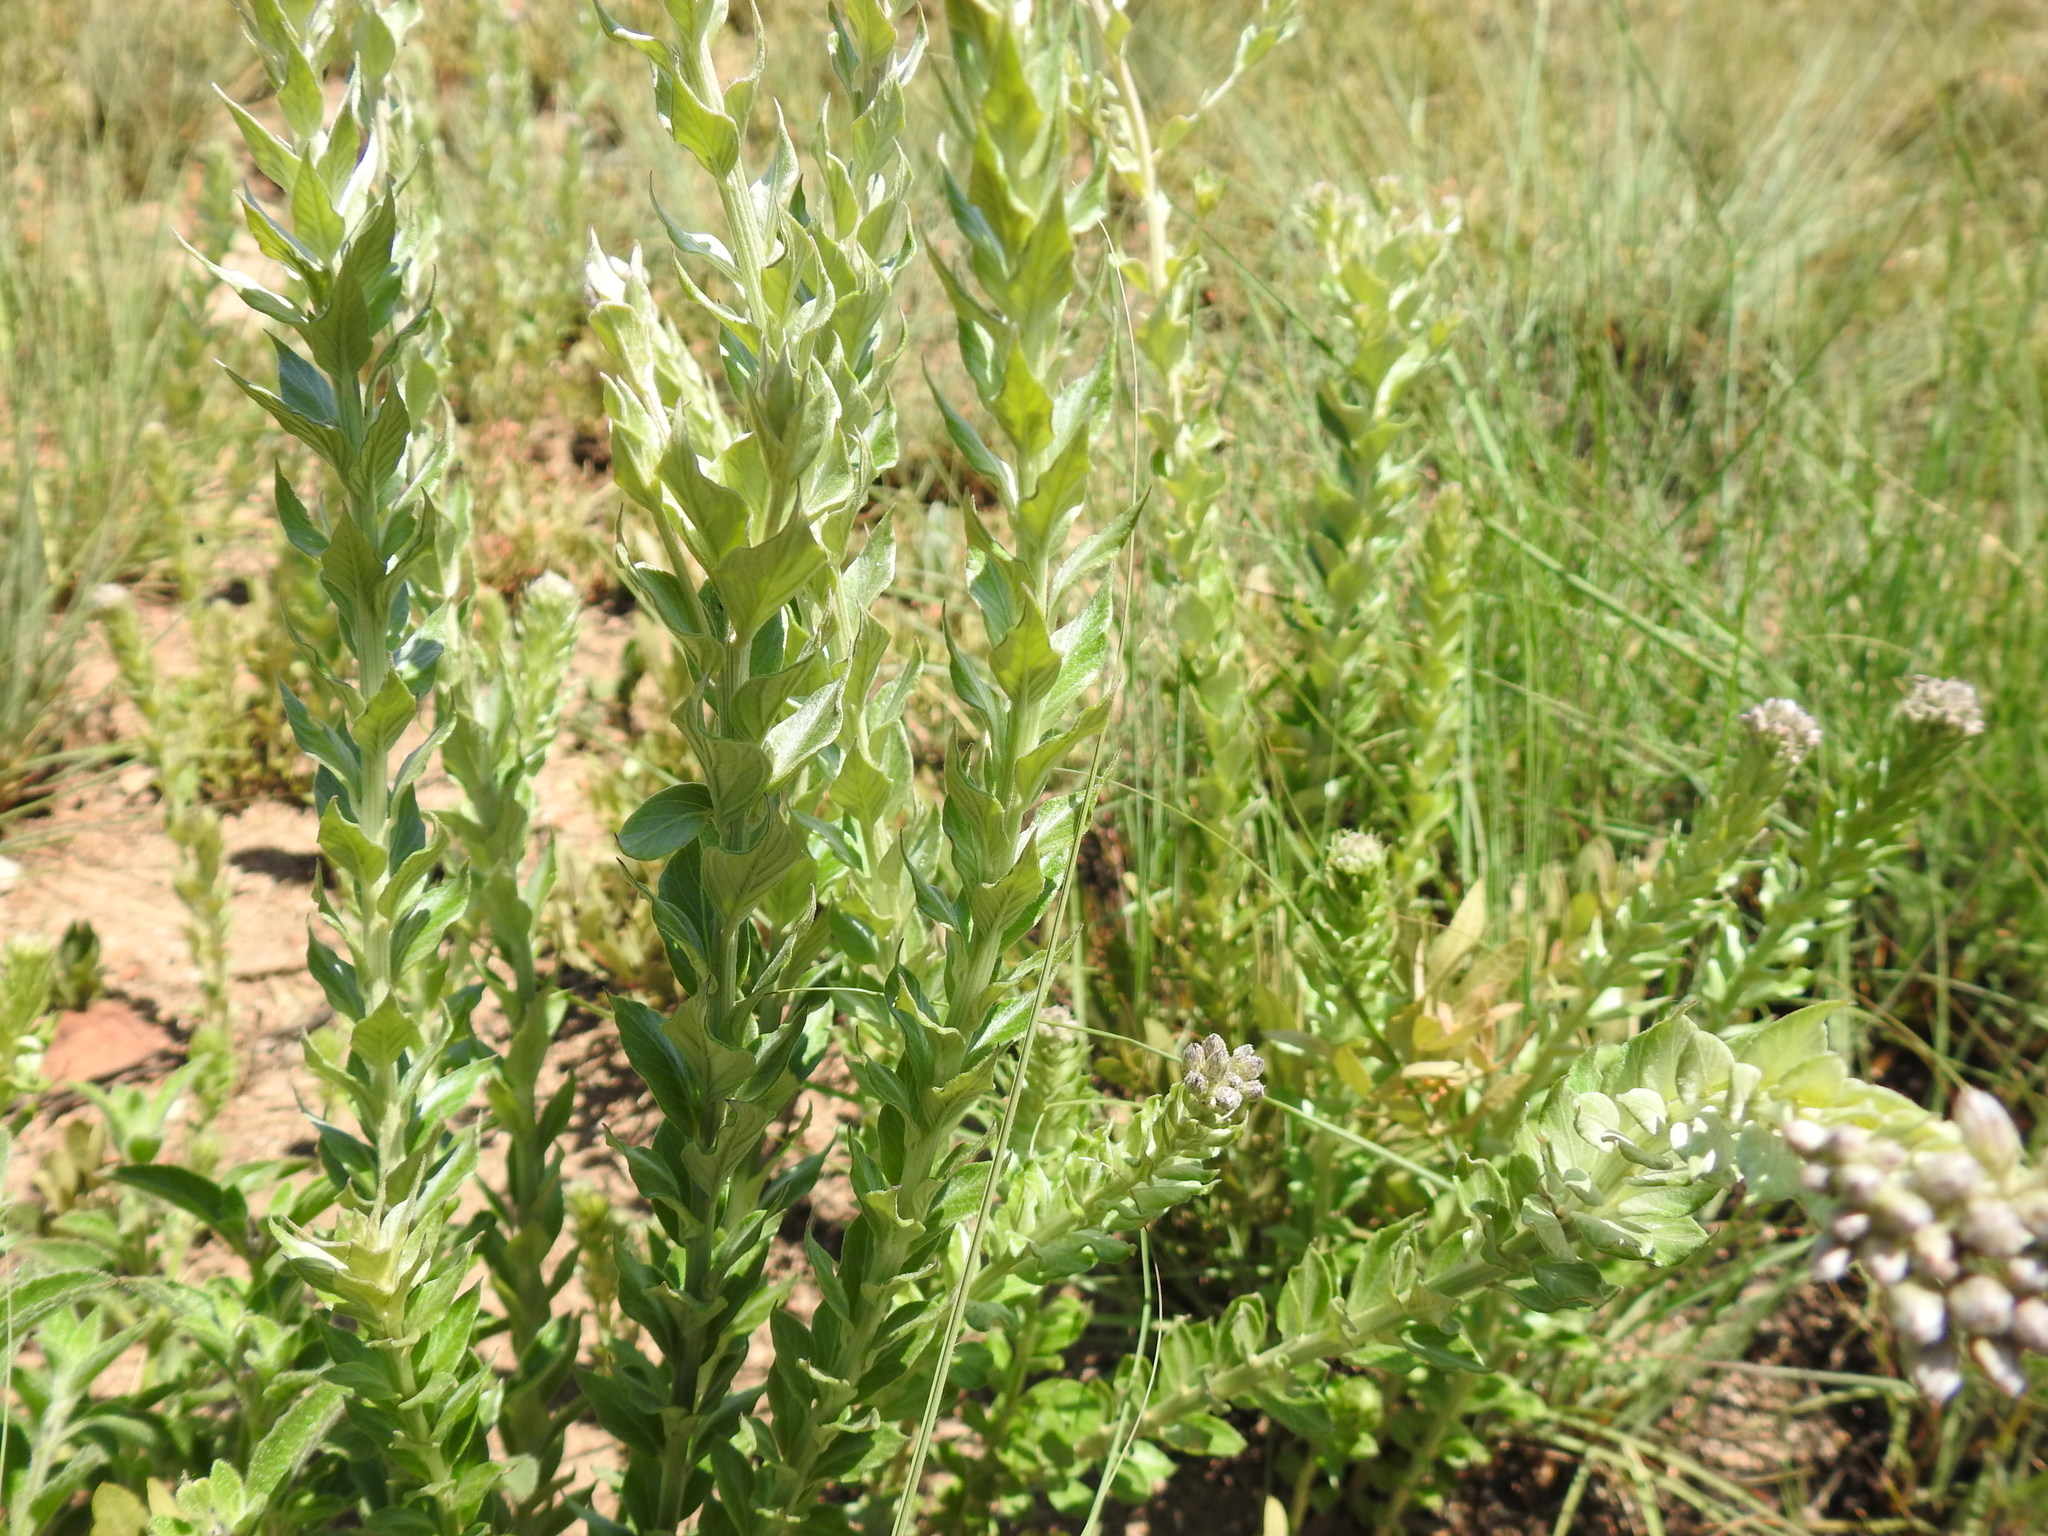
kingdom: Plantae
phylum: Tracheophyta
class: Magnoliopsida
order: Asterales
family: Asteraceae
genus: Hilliardiella
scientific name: Hilliardiella oligocephala
